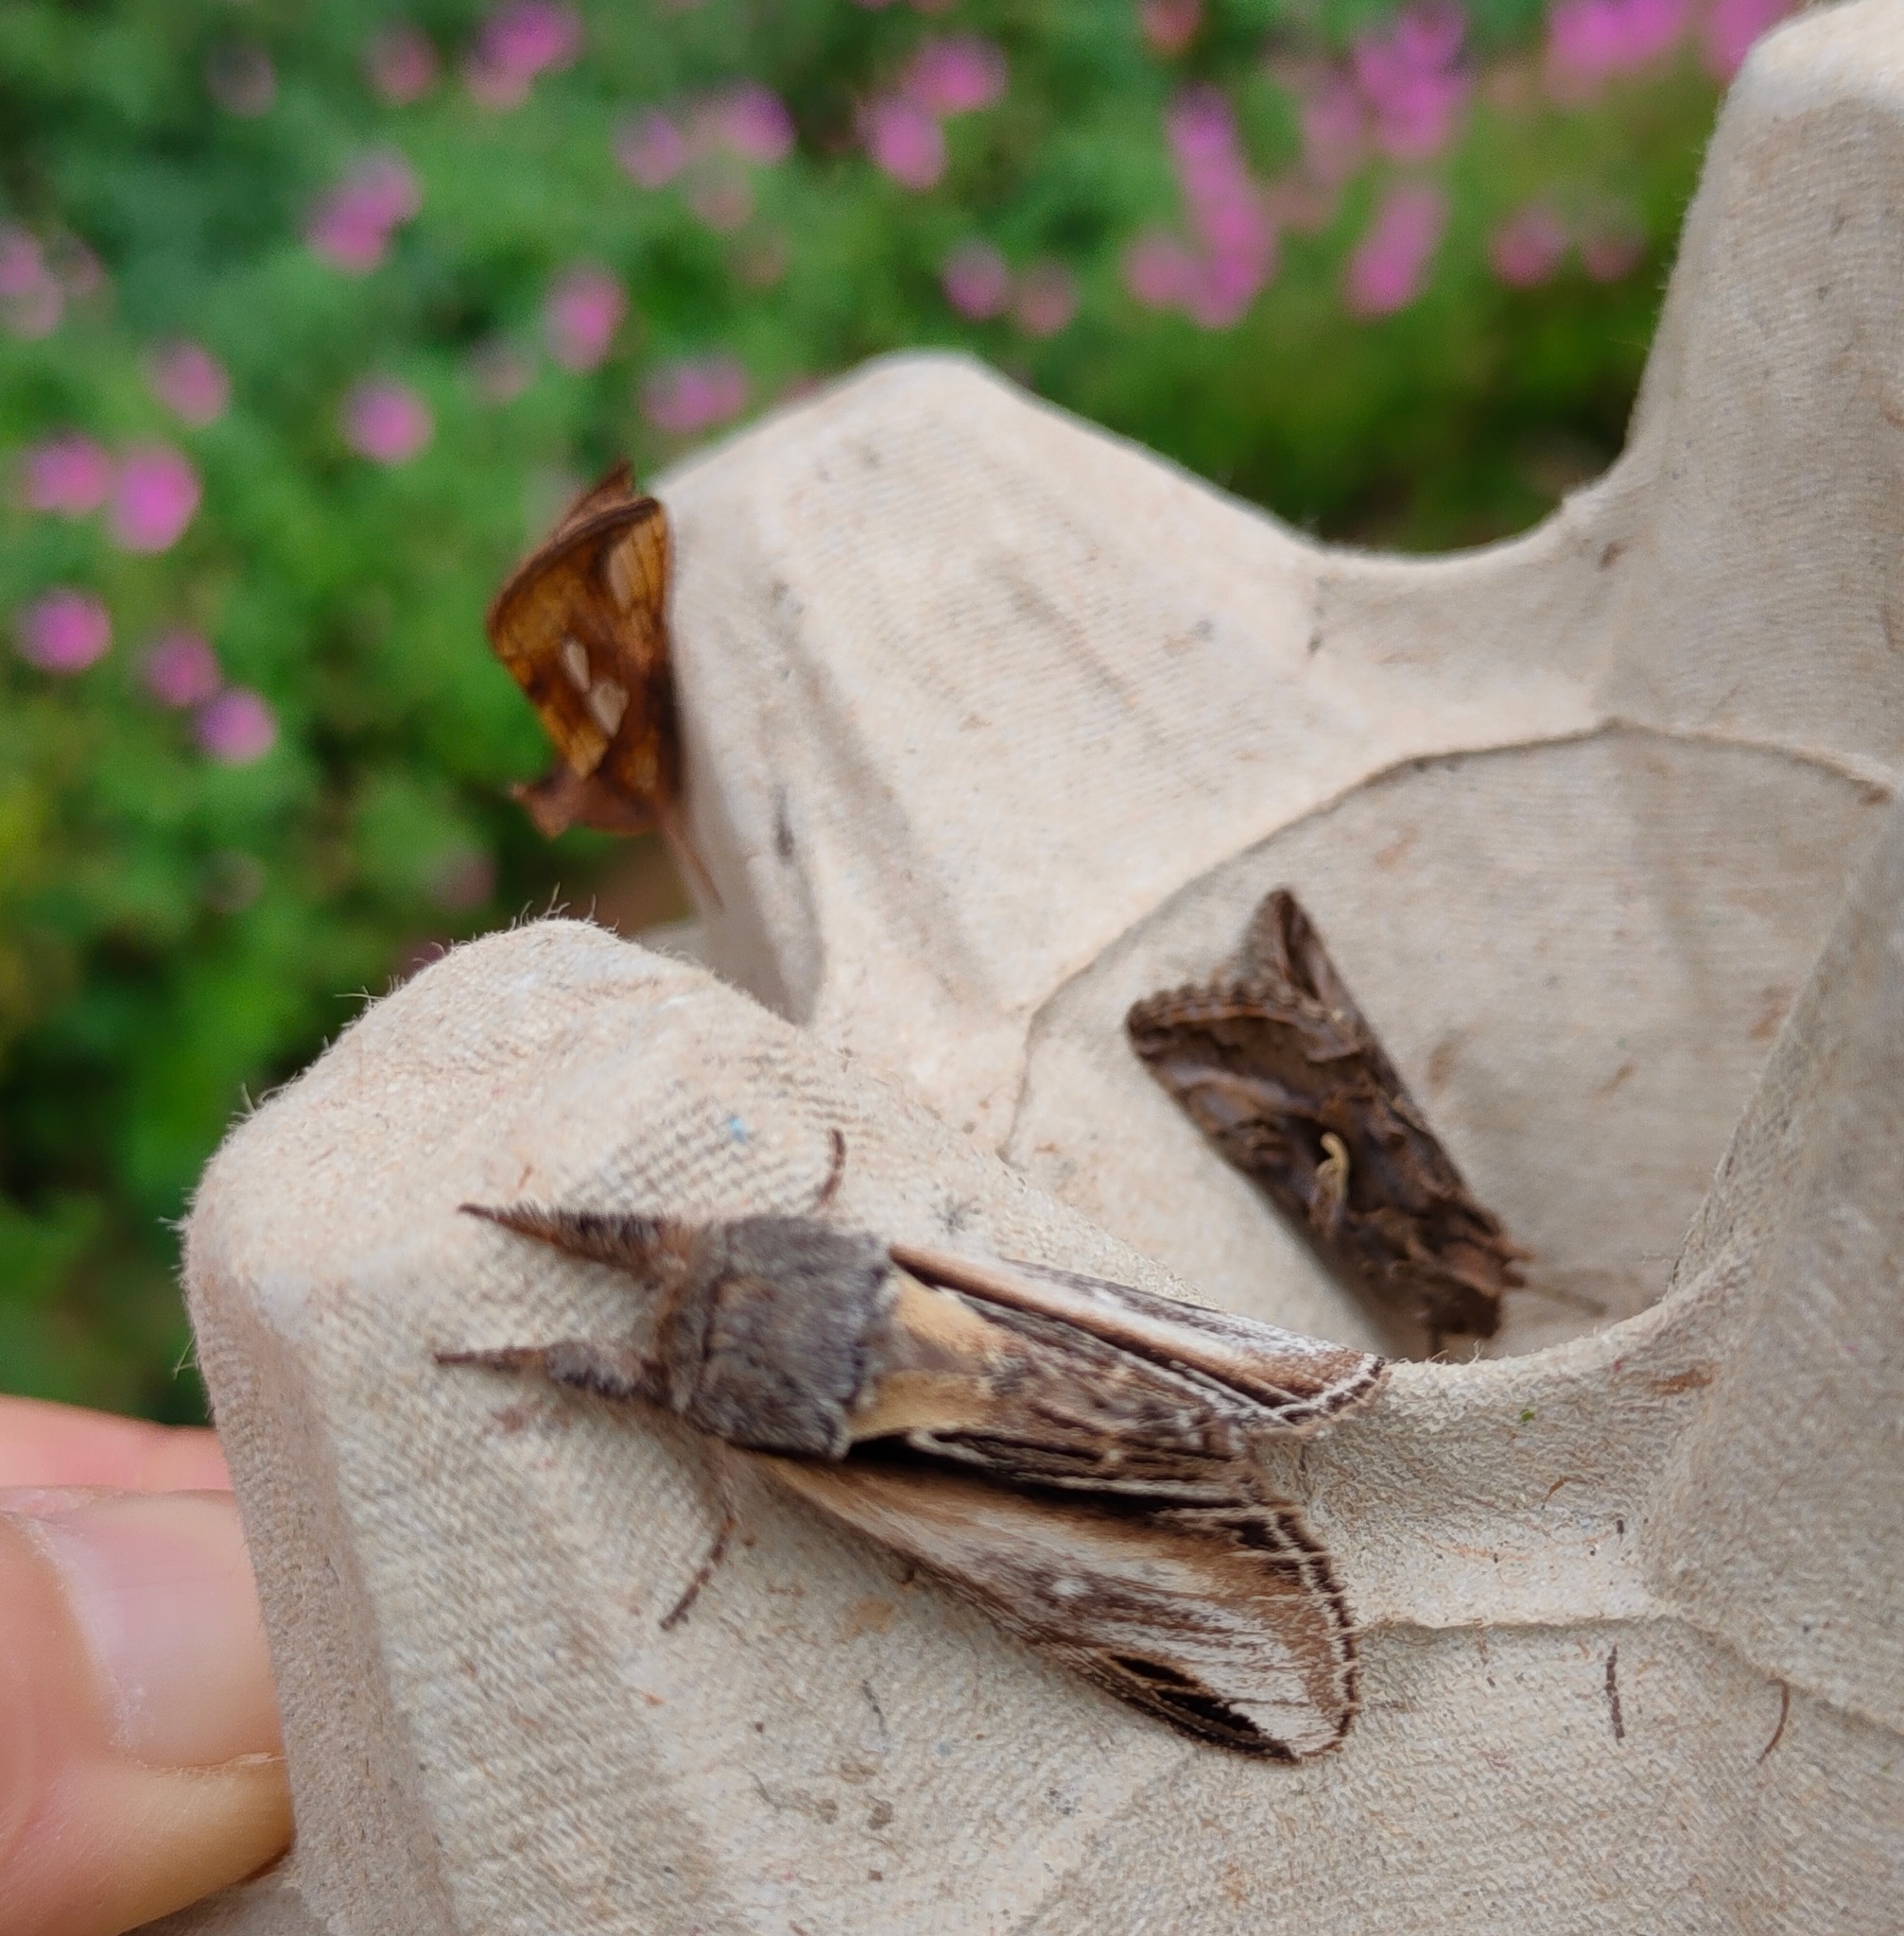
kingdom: Animalia
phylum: Arthropoda
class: Insecta
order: Lepidoptera
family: Notodontidae
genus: Pheosia
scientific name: Pheosia tremula
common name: Swallow prominent
